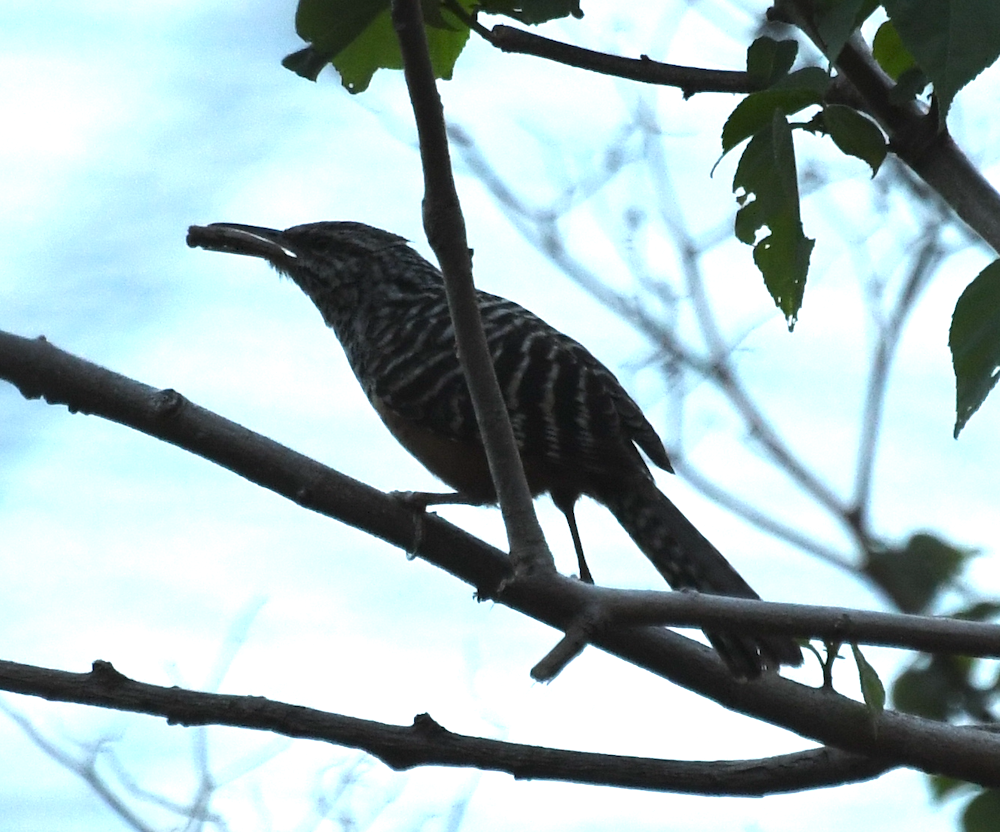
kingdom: Animalia
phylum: Chordata
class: Aves
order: Passeriformes
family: Troglodytidae
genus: Campylorhynchus
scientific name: Campylorhynchus zonatus
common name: Band-backed wren
